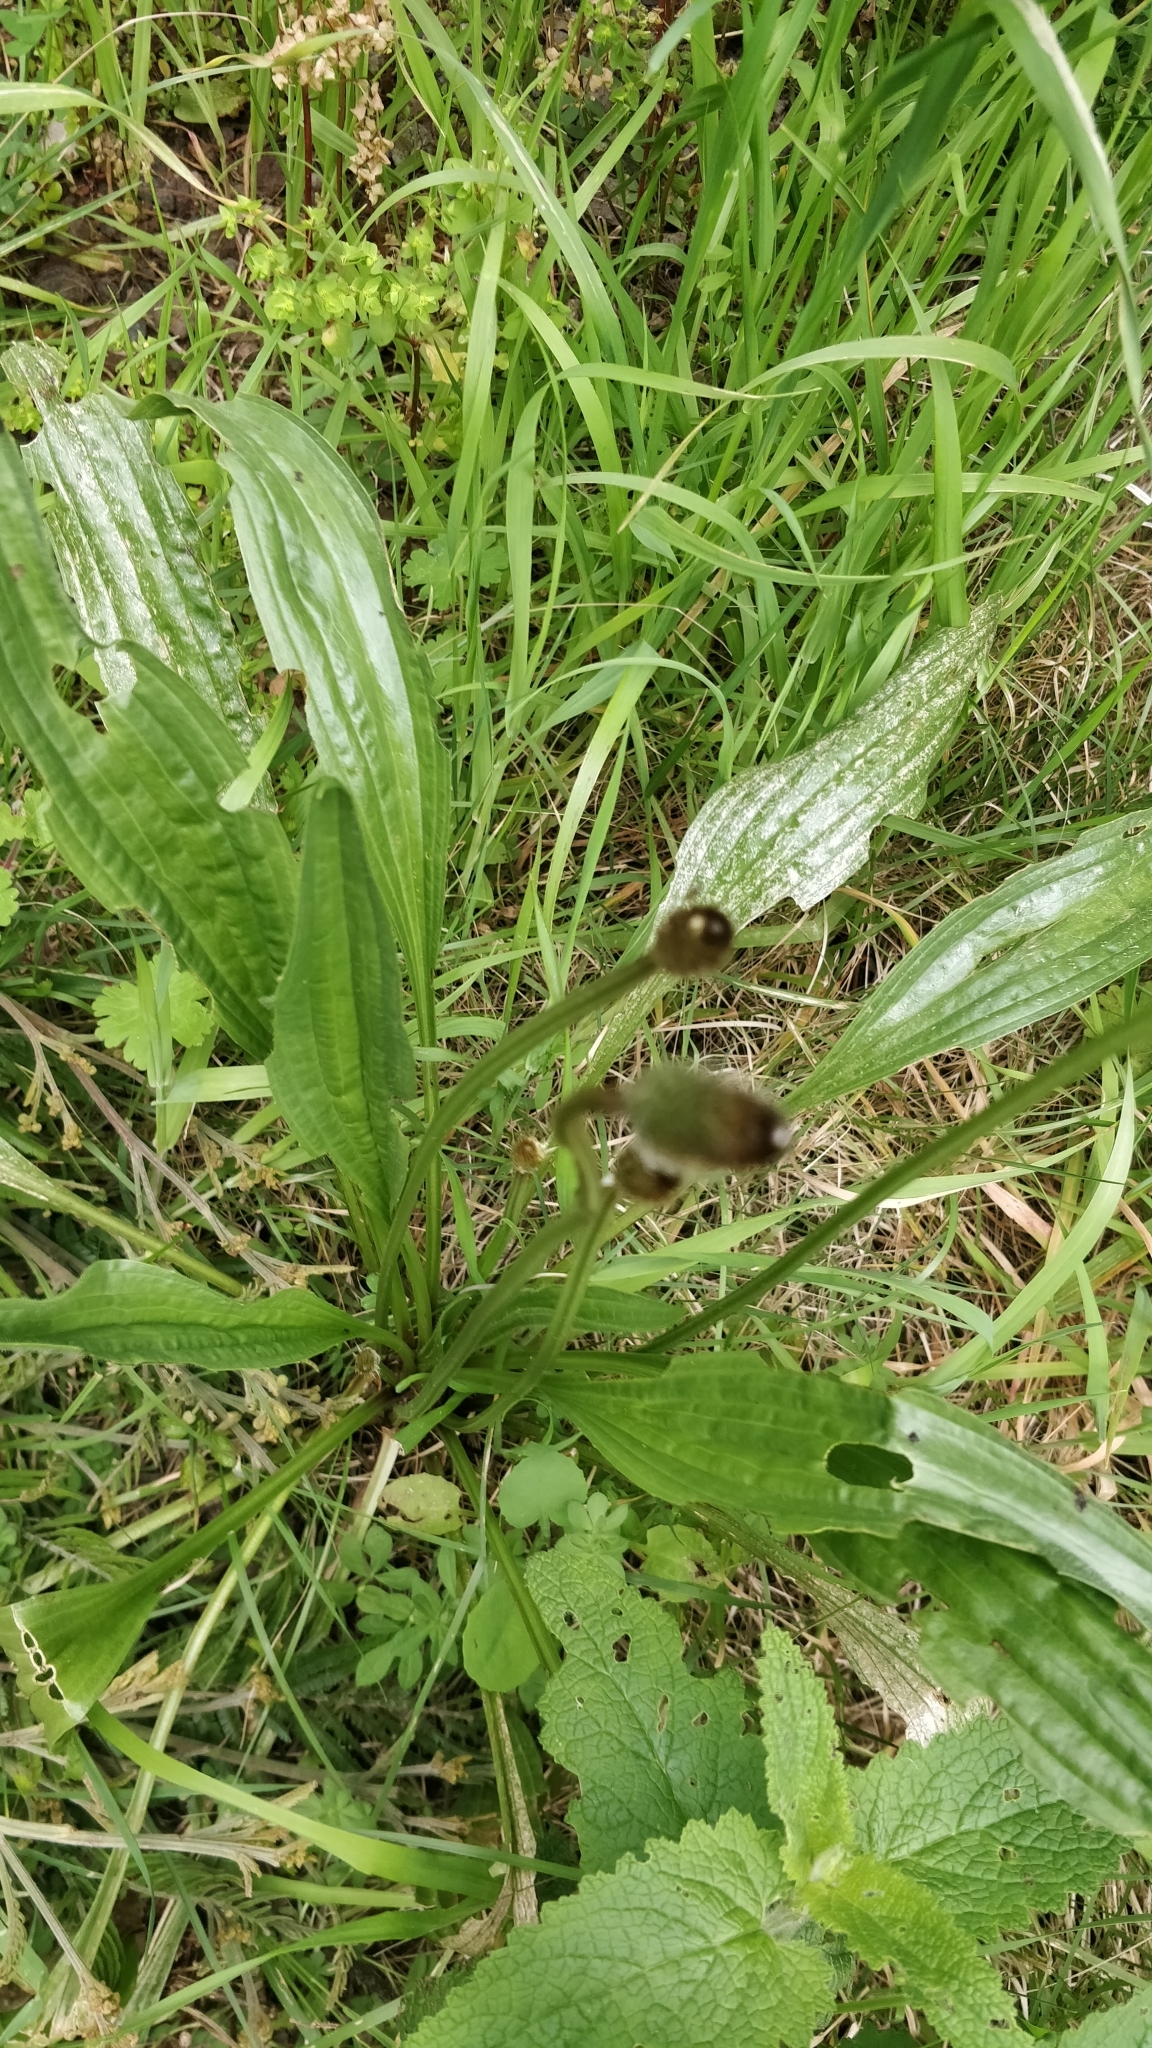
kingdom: Plantae
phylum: Tracheophyta
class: Magnoliopsida
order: Lamiales
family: Plantaginaceae
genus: Plantago
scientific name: Plantago lanceolata
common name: Ribwort plantain
